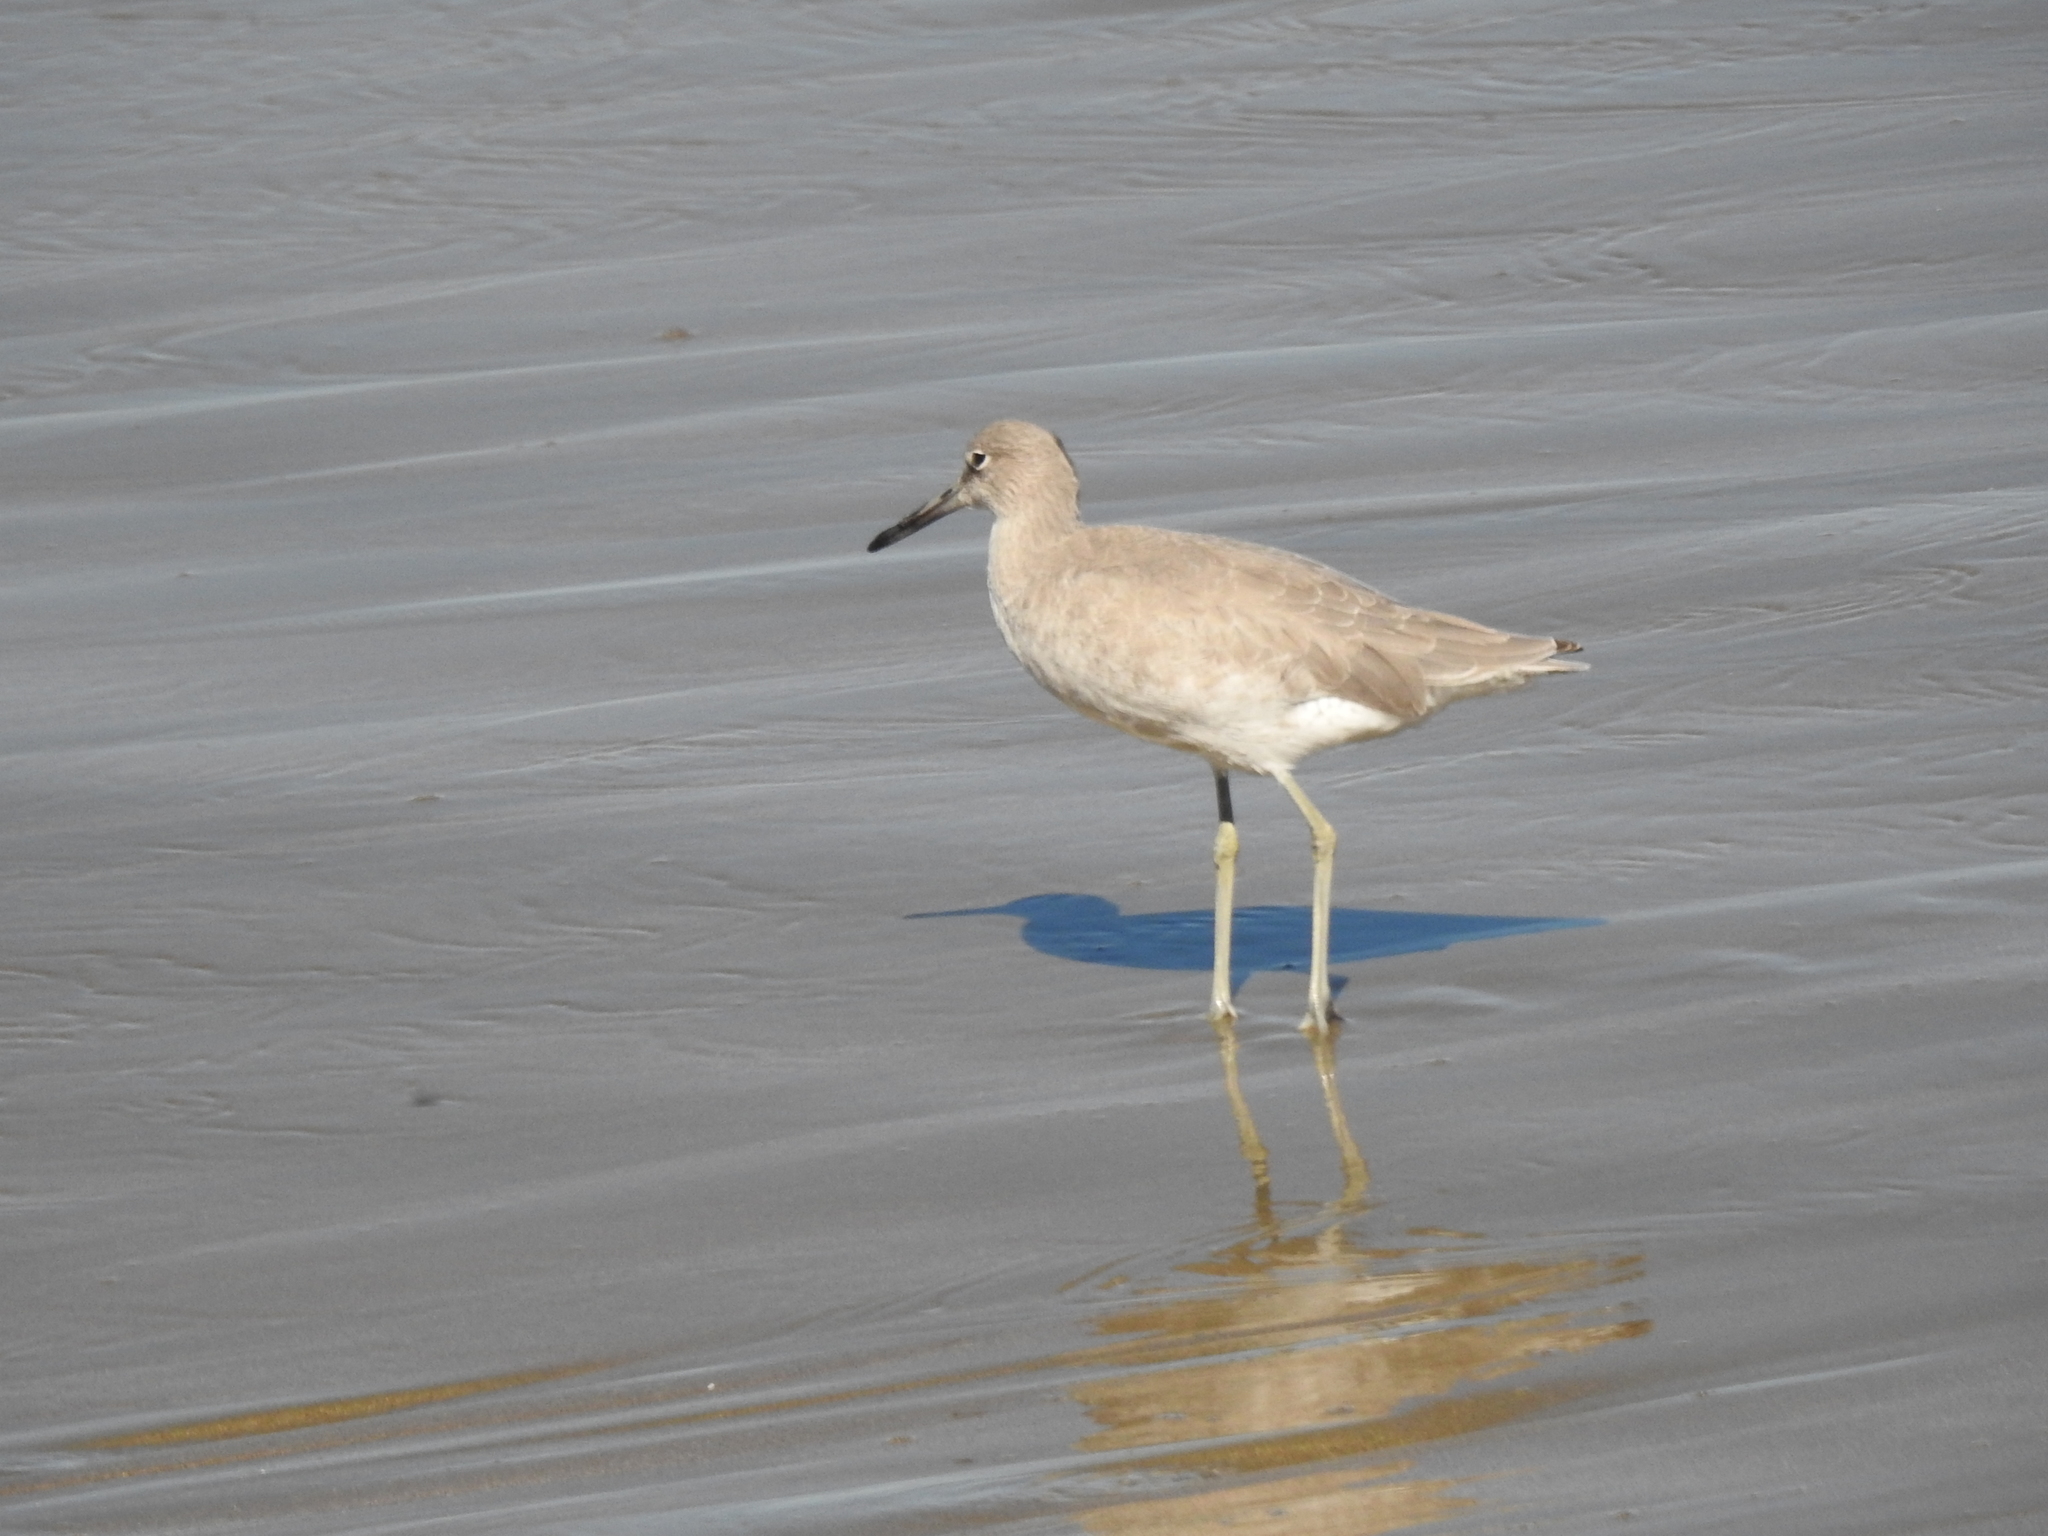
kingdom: Animalia
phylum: Chordata
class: Aves
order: Charadriiformes
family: Scolopacidae
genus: Tringa
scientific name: Tringa semipalmata
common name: Willet
